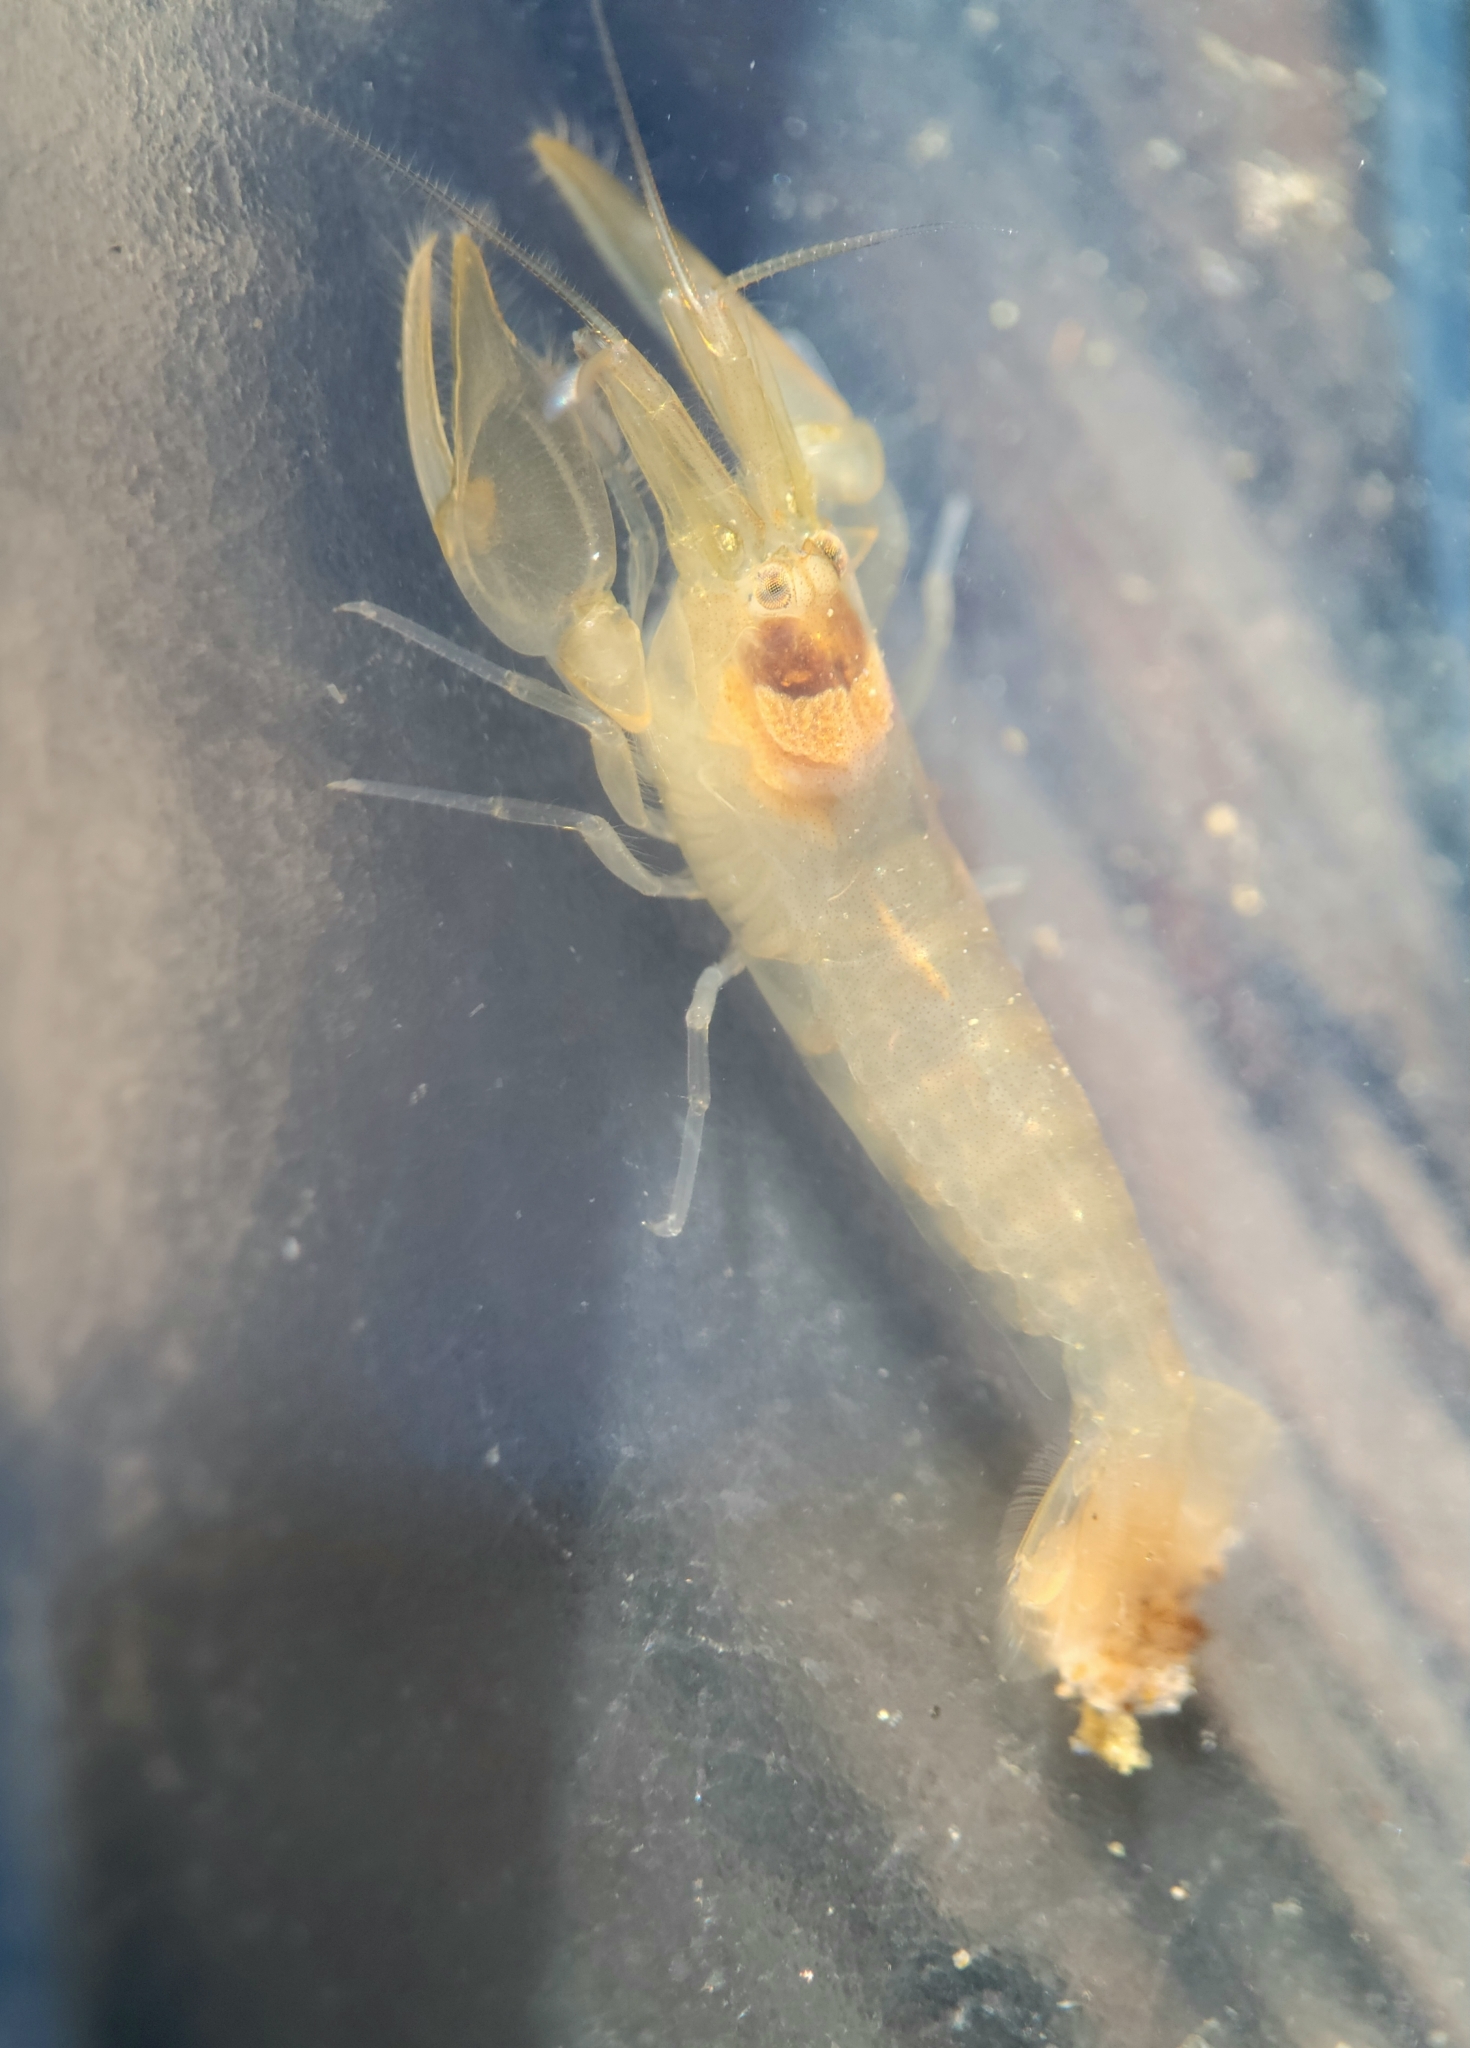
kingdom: Animalia
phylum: Arthropoda
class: Malacostraca
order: Decapoda
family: Alpheidae
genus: Betaeus
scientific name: Betaeus setosus
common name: Fuzzy hooded shrimp
